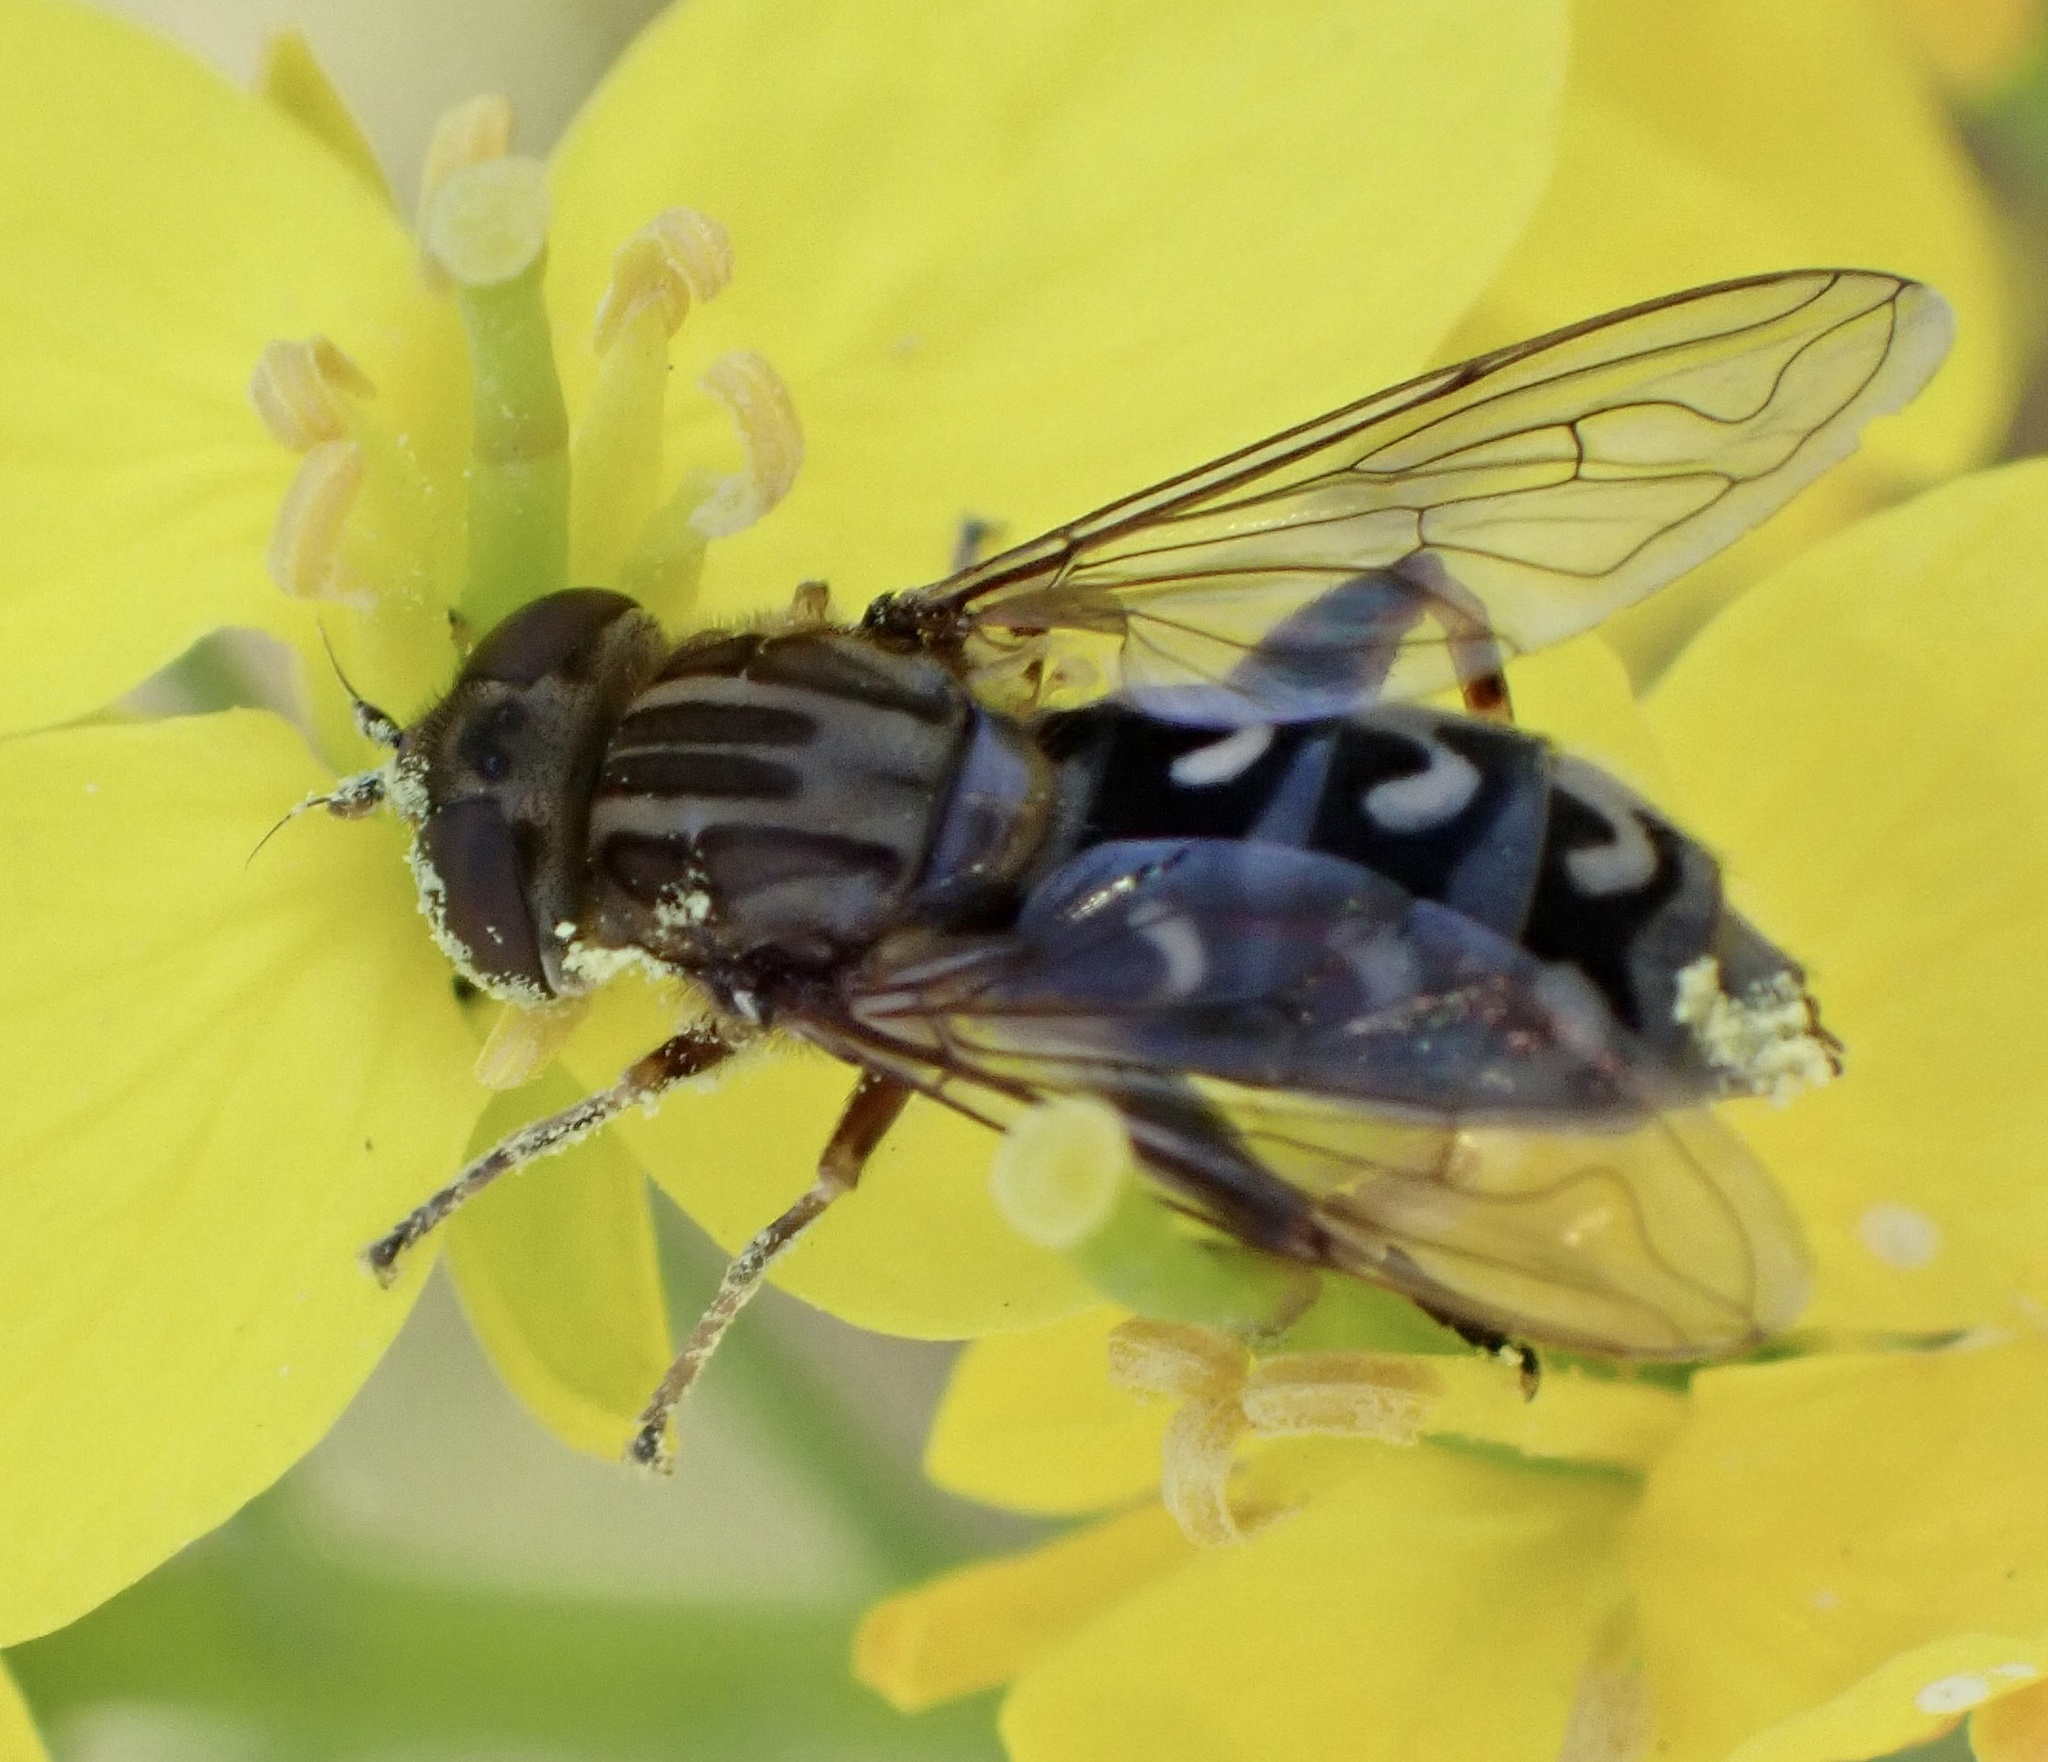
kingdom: Animalia
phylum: Arthropoda
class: Insecta
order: Diptera
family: Syrphidae
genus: Anasimyia
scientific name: Anasimyia transfuga
